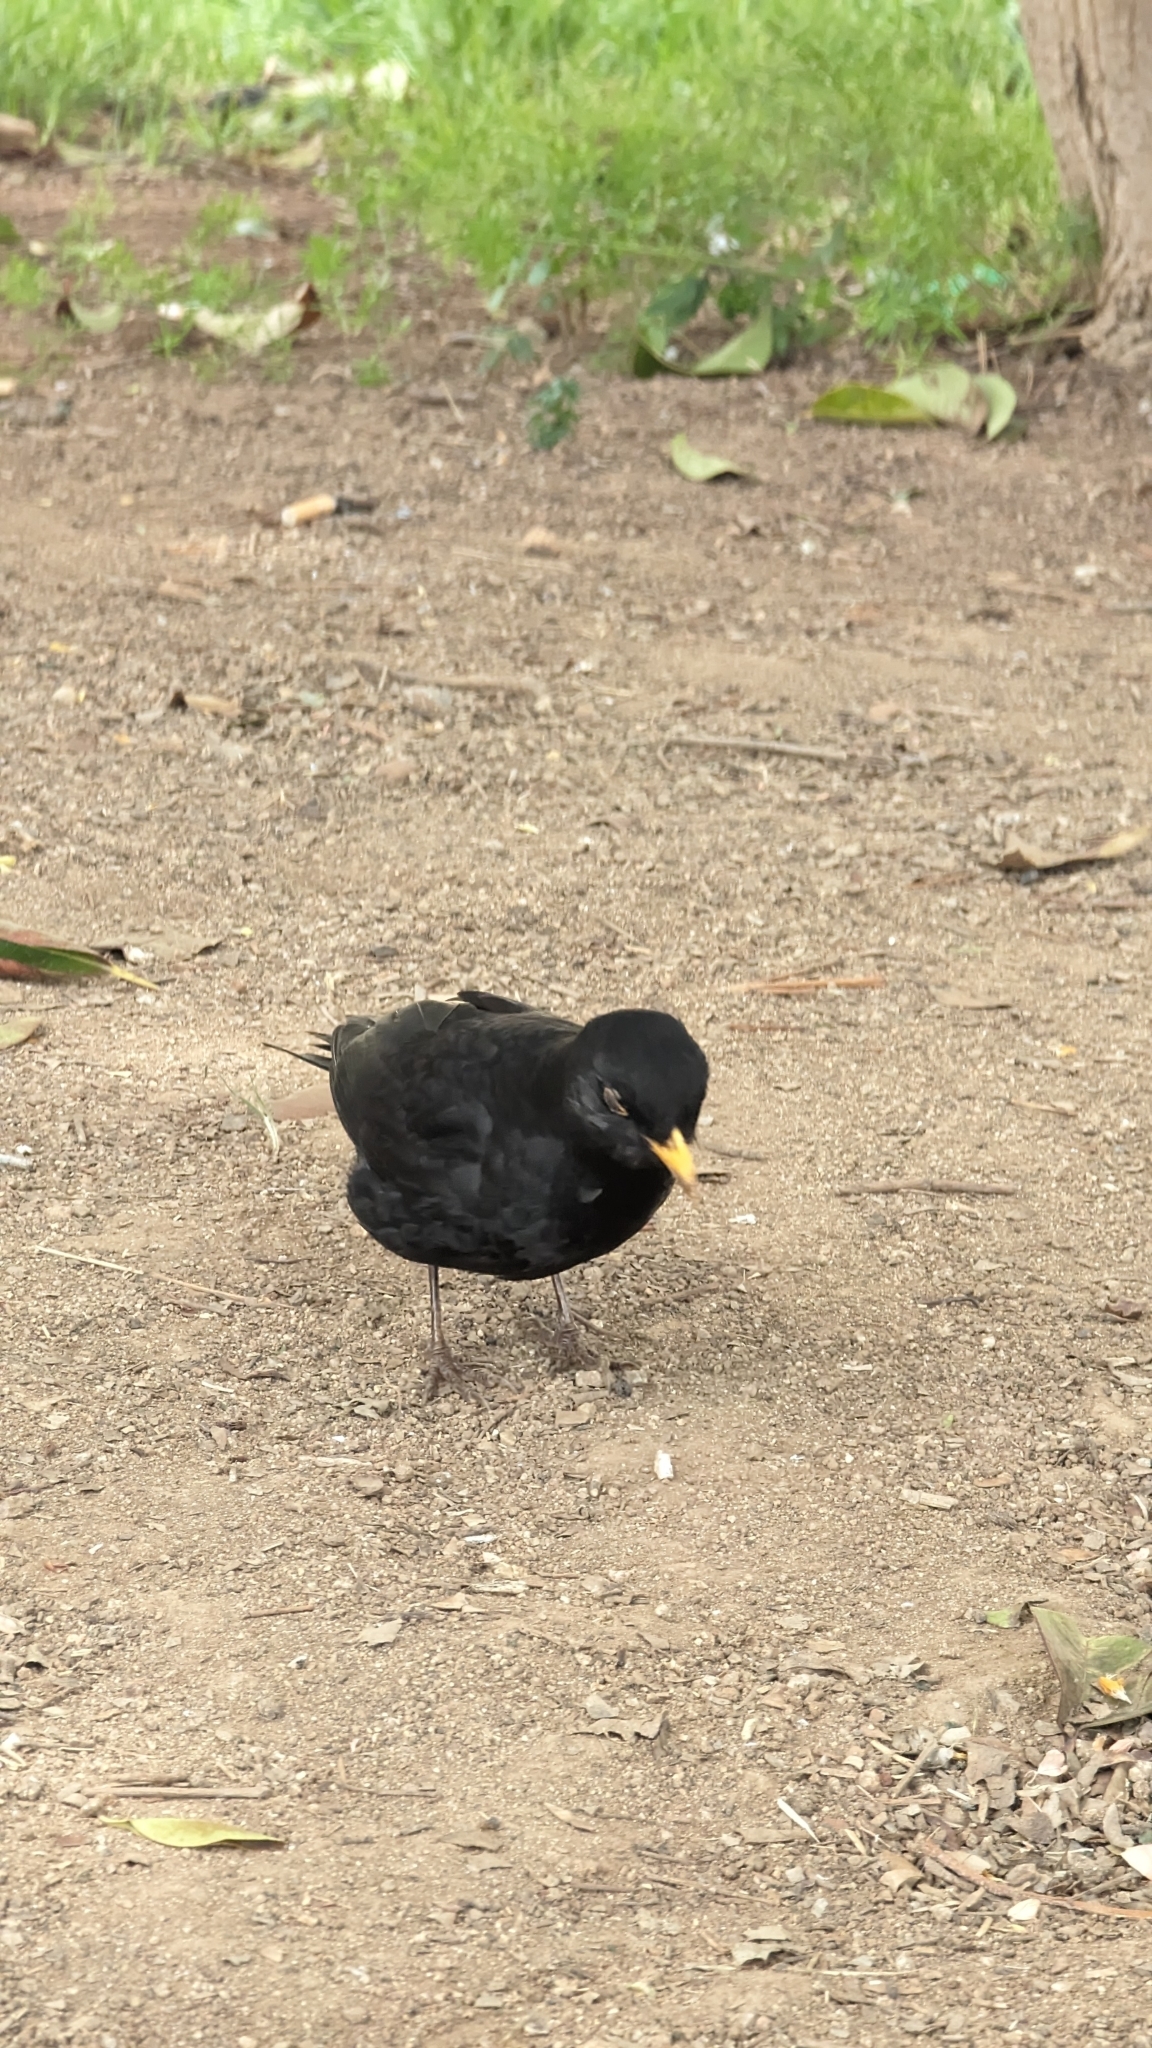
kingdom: Animalia
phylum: Chordata
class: Aves
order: Passeriformes
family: Turdidae
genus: Turdus
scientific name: Turdus merula
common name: Common blackbird
